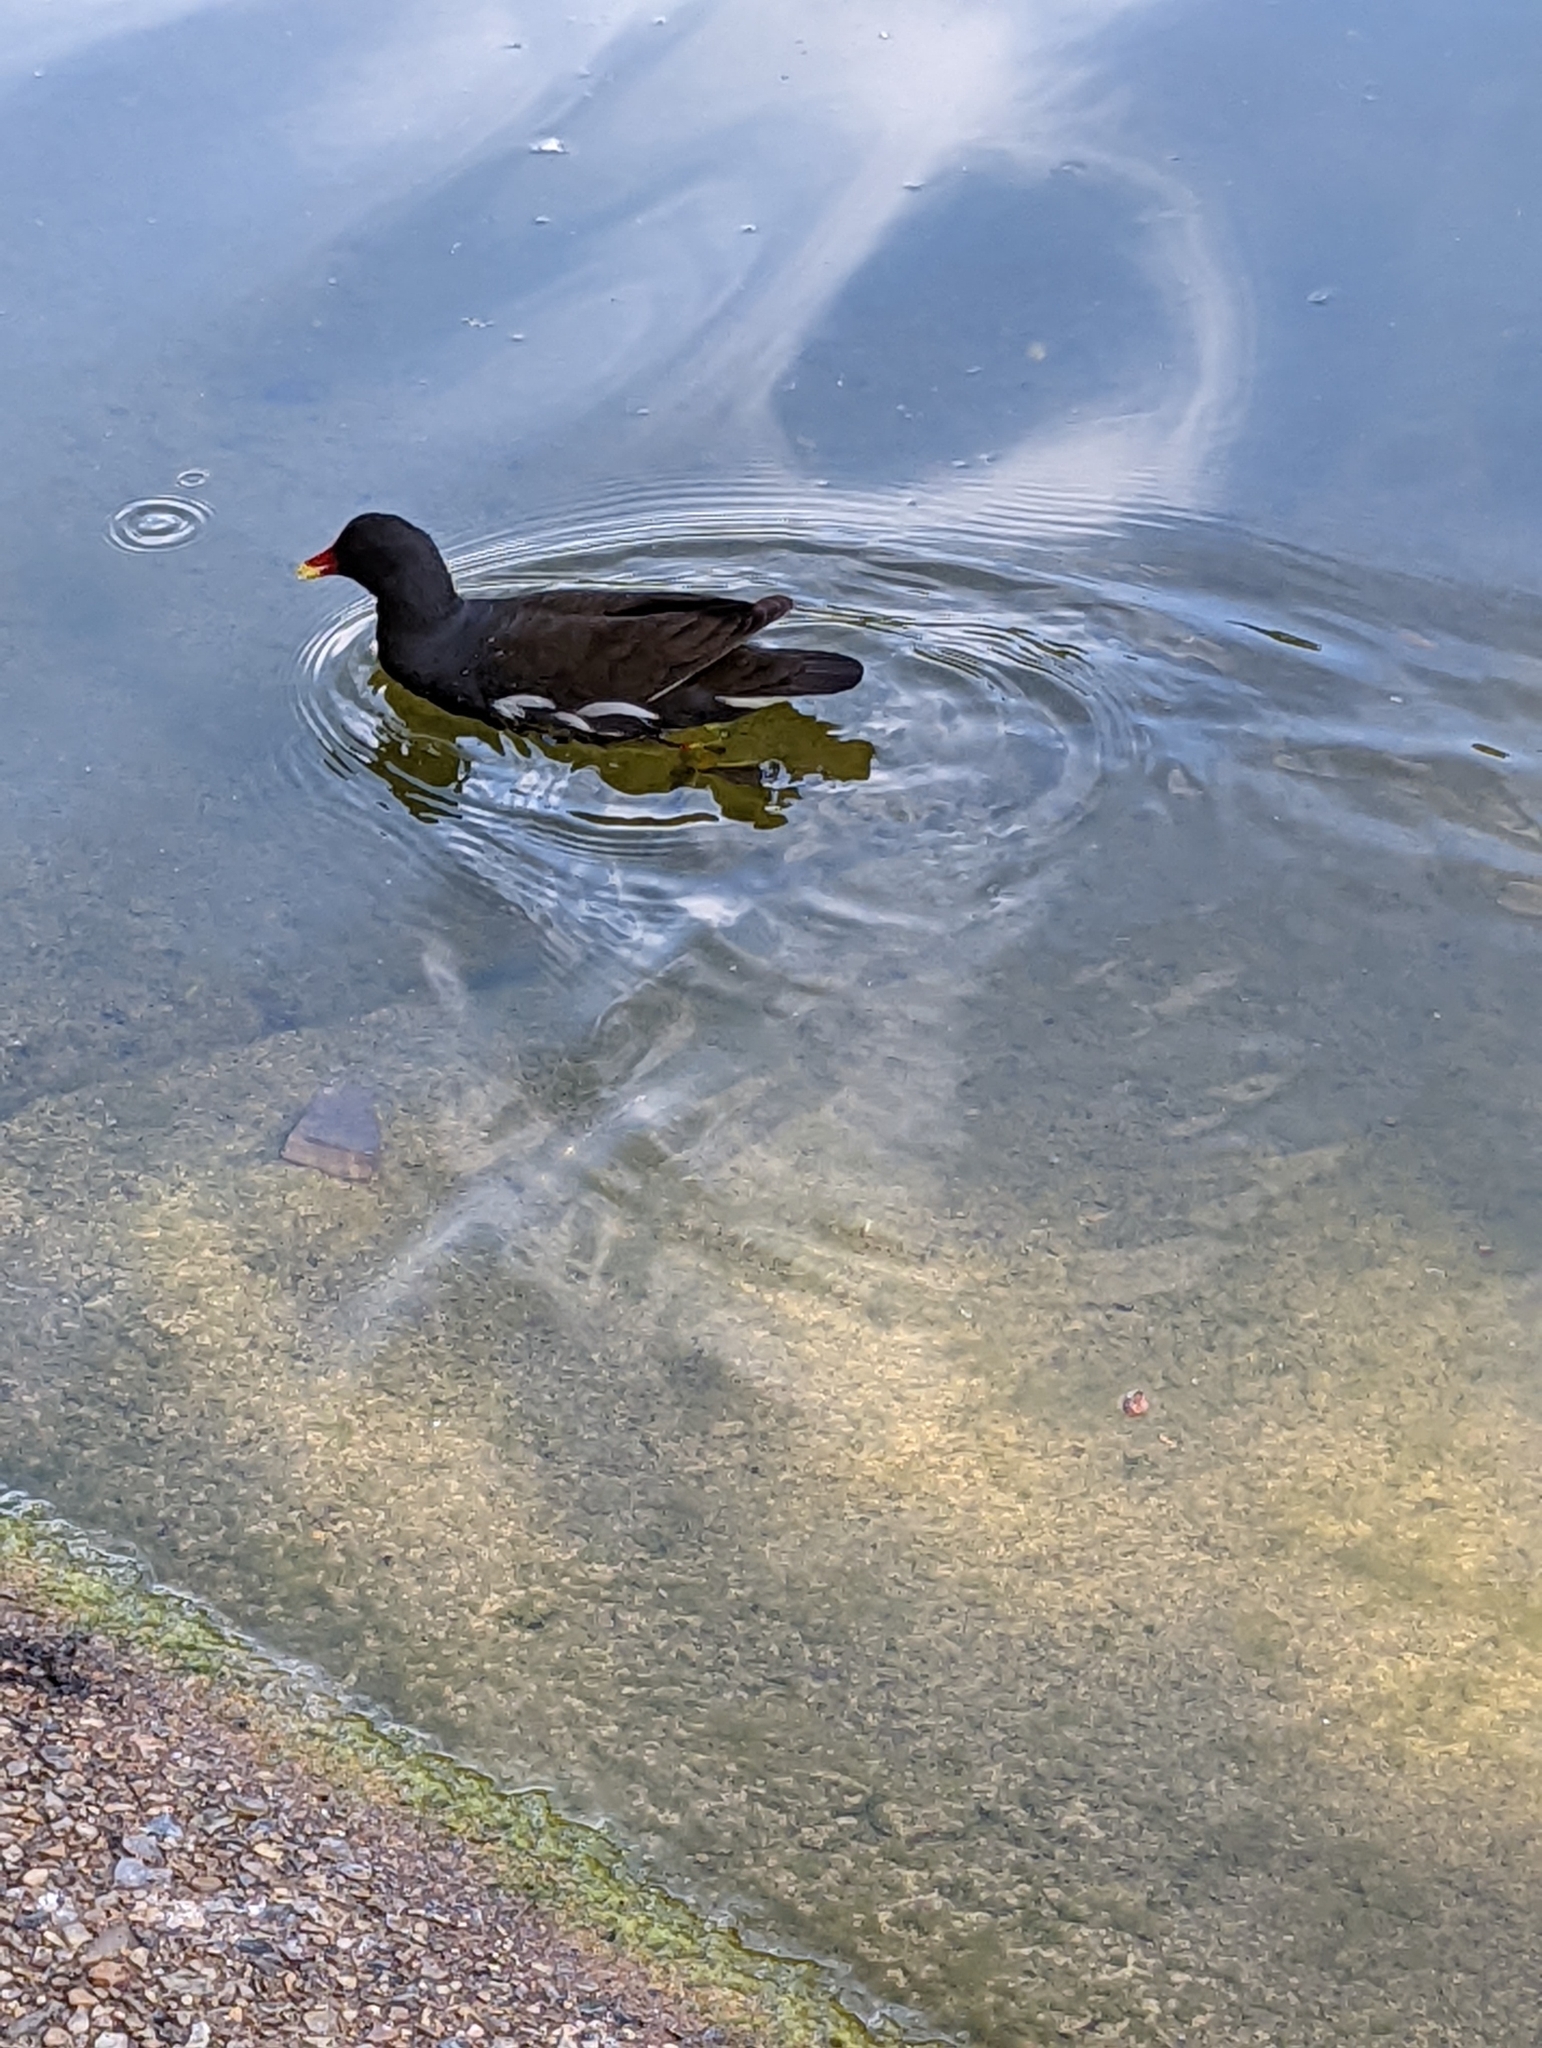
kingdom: Animalia
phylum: Chordata
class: Aves
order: Gruiformes
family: Rallidae
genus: Gallinula
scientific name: Gallinula chloropus
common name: Common moorhen
